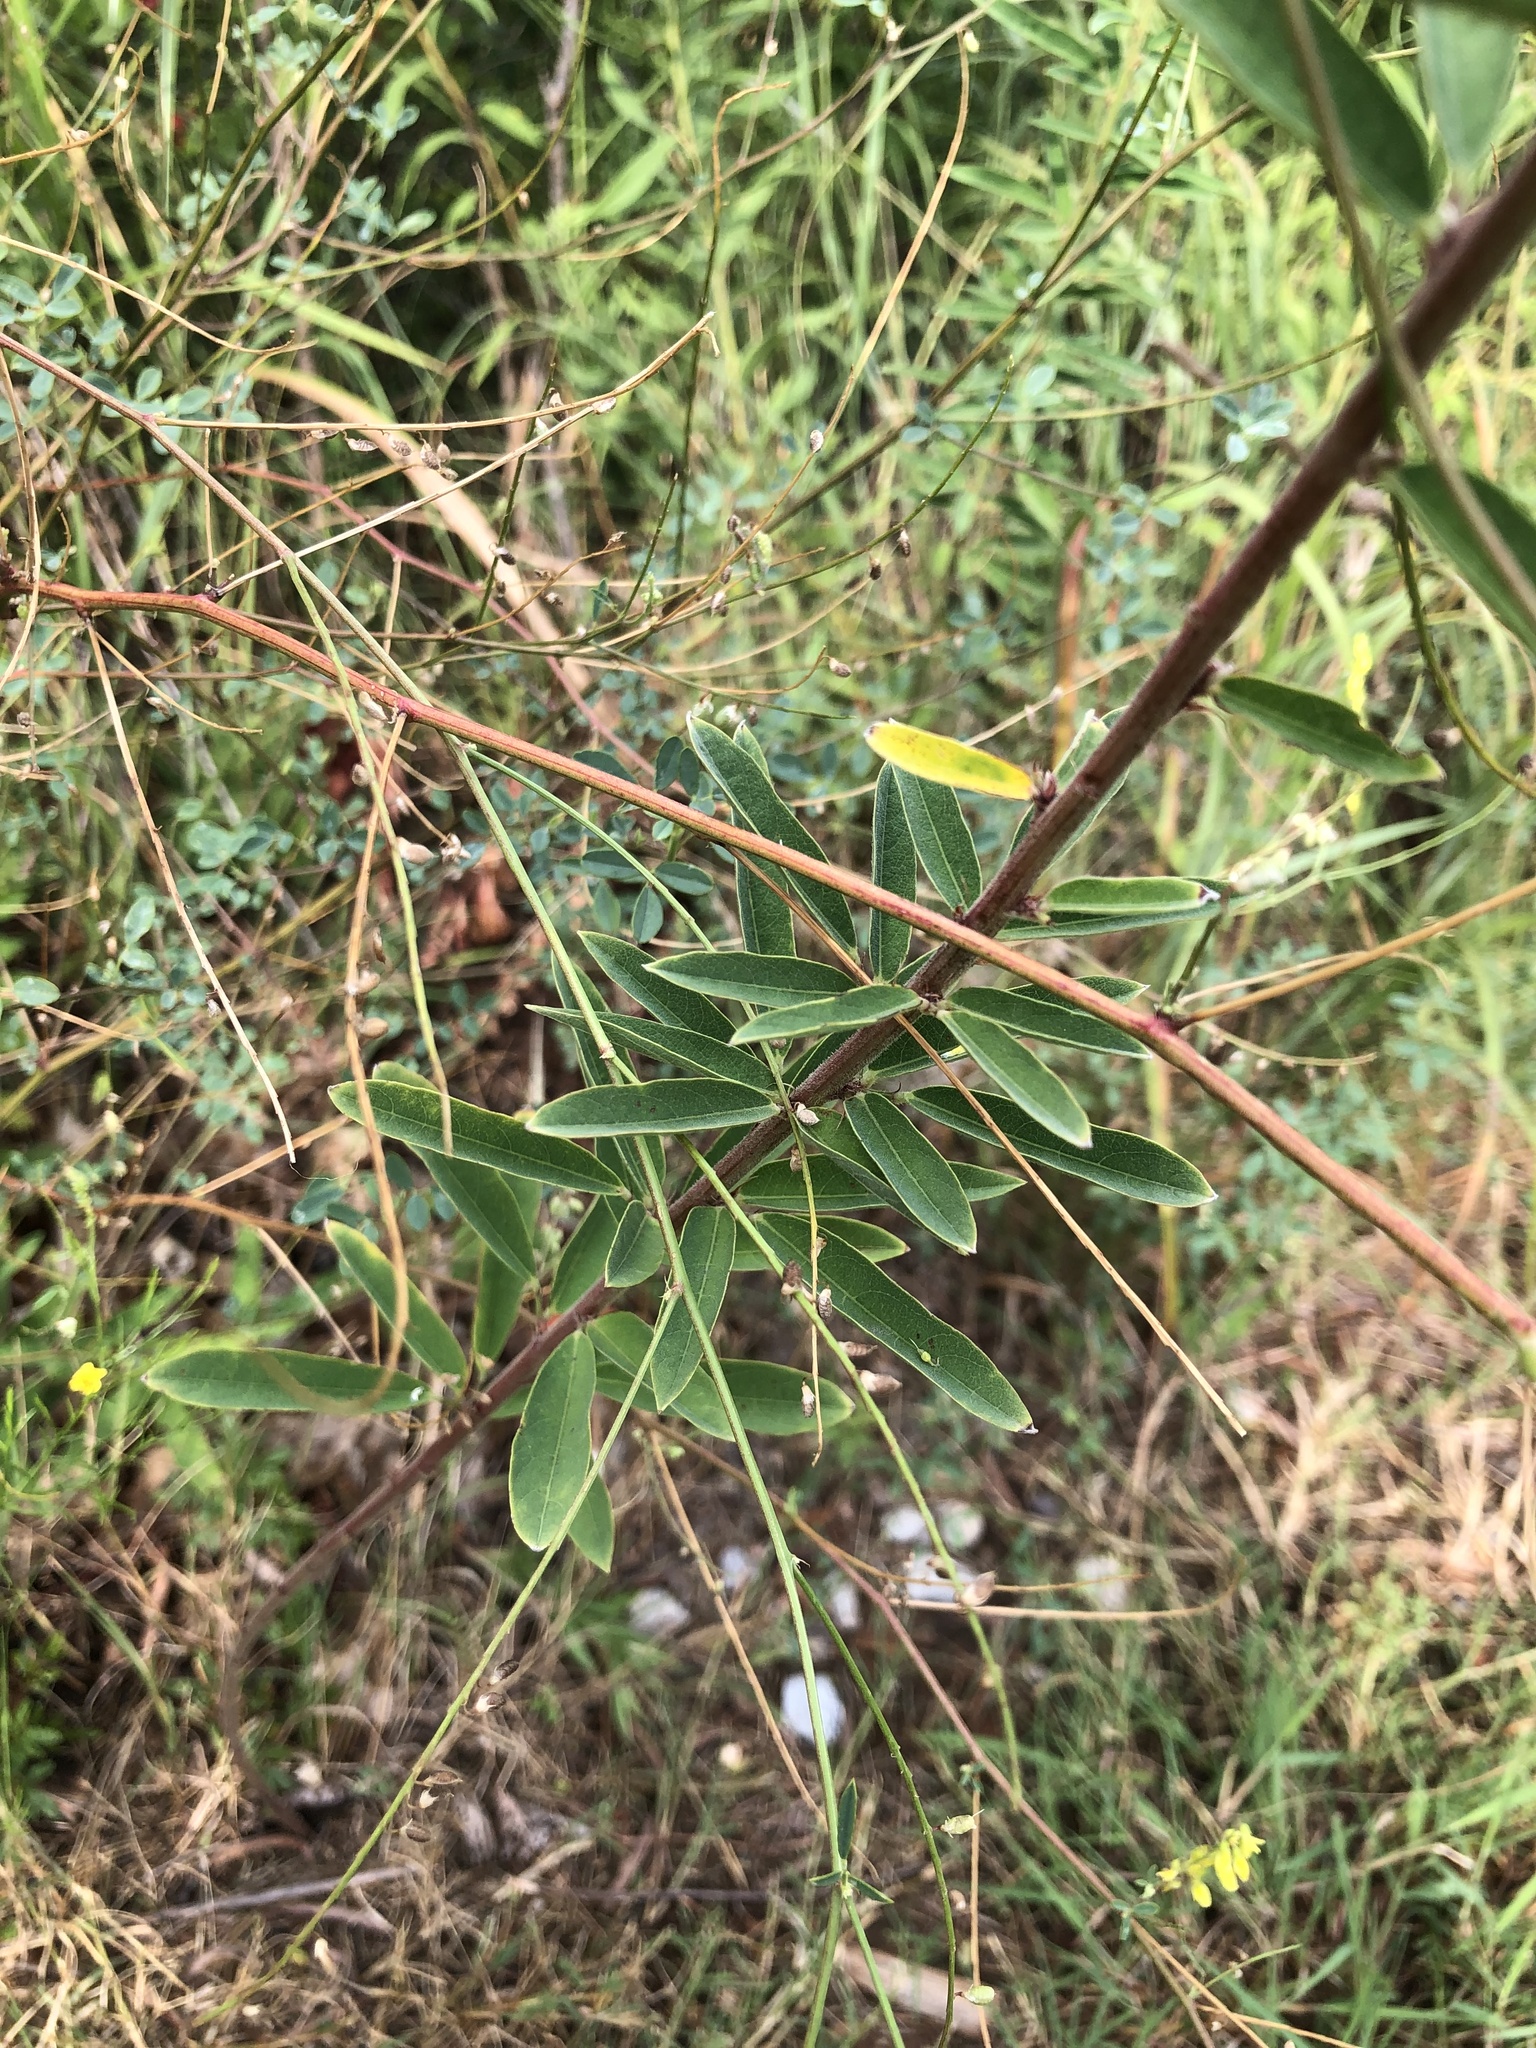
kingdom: Plantae
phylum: Tracheophyta
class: Magnoliopsida
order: Fabales
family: Fabaceae
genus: Desmodium
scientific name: Desmodium sessilifolium
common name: Sessile tick-clover
